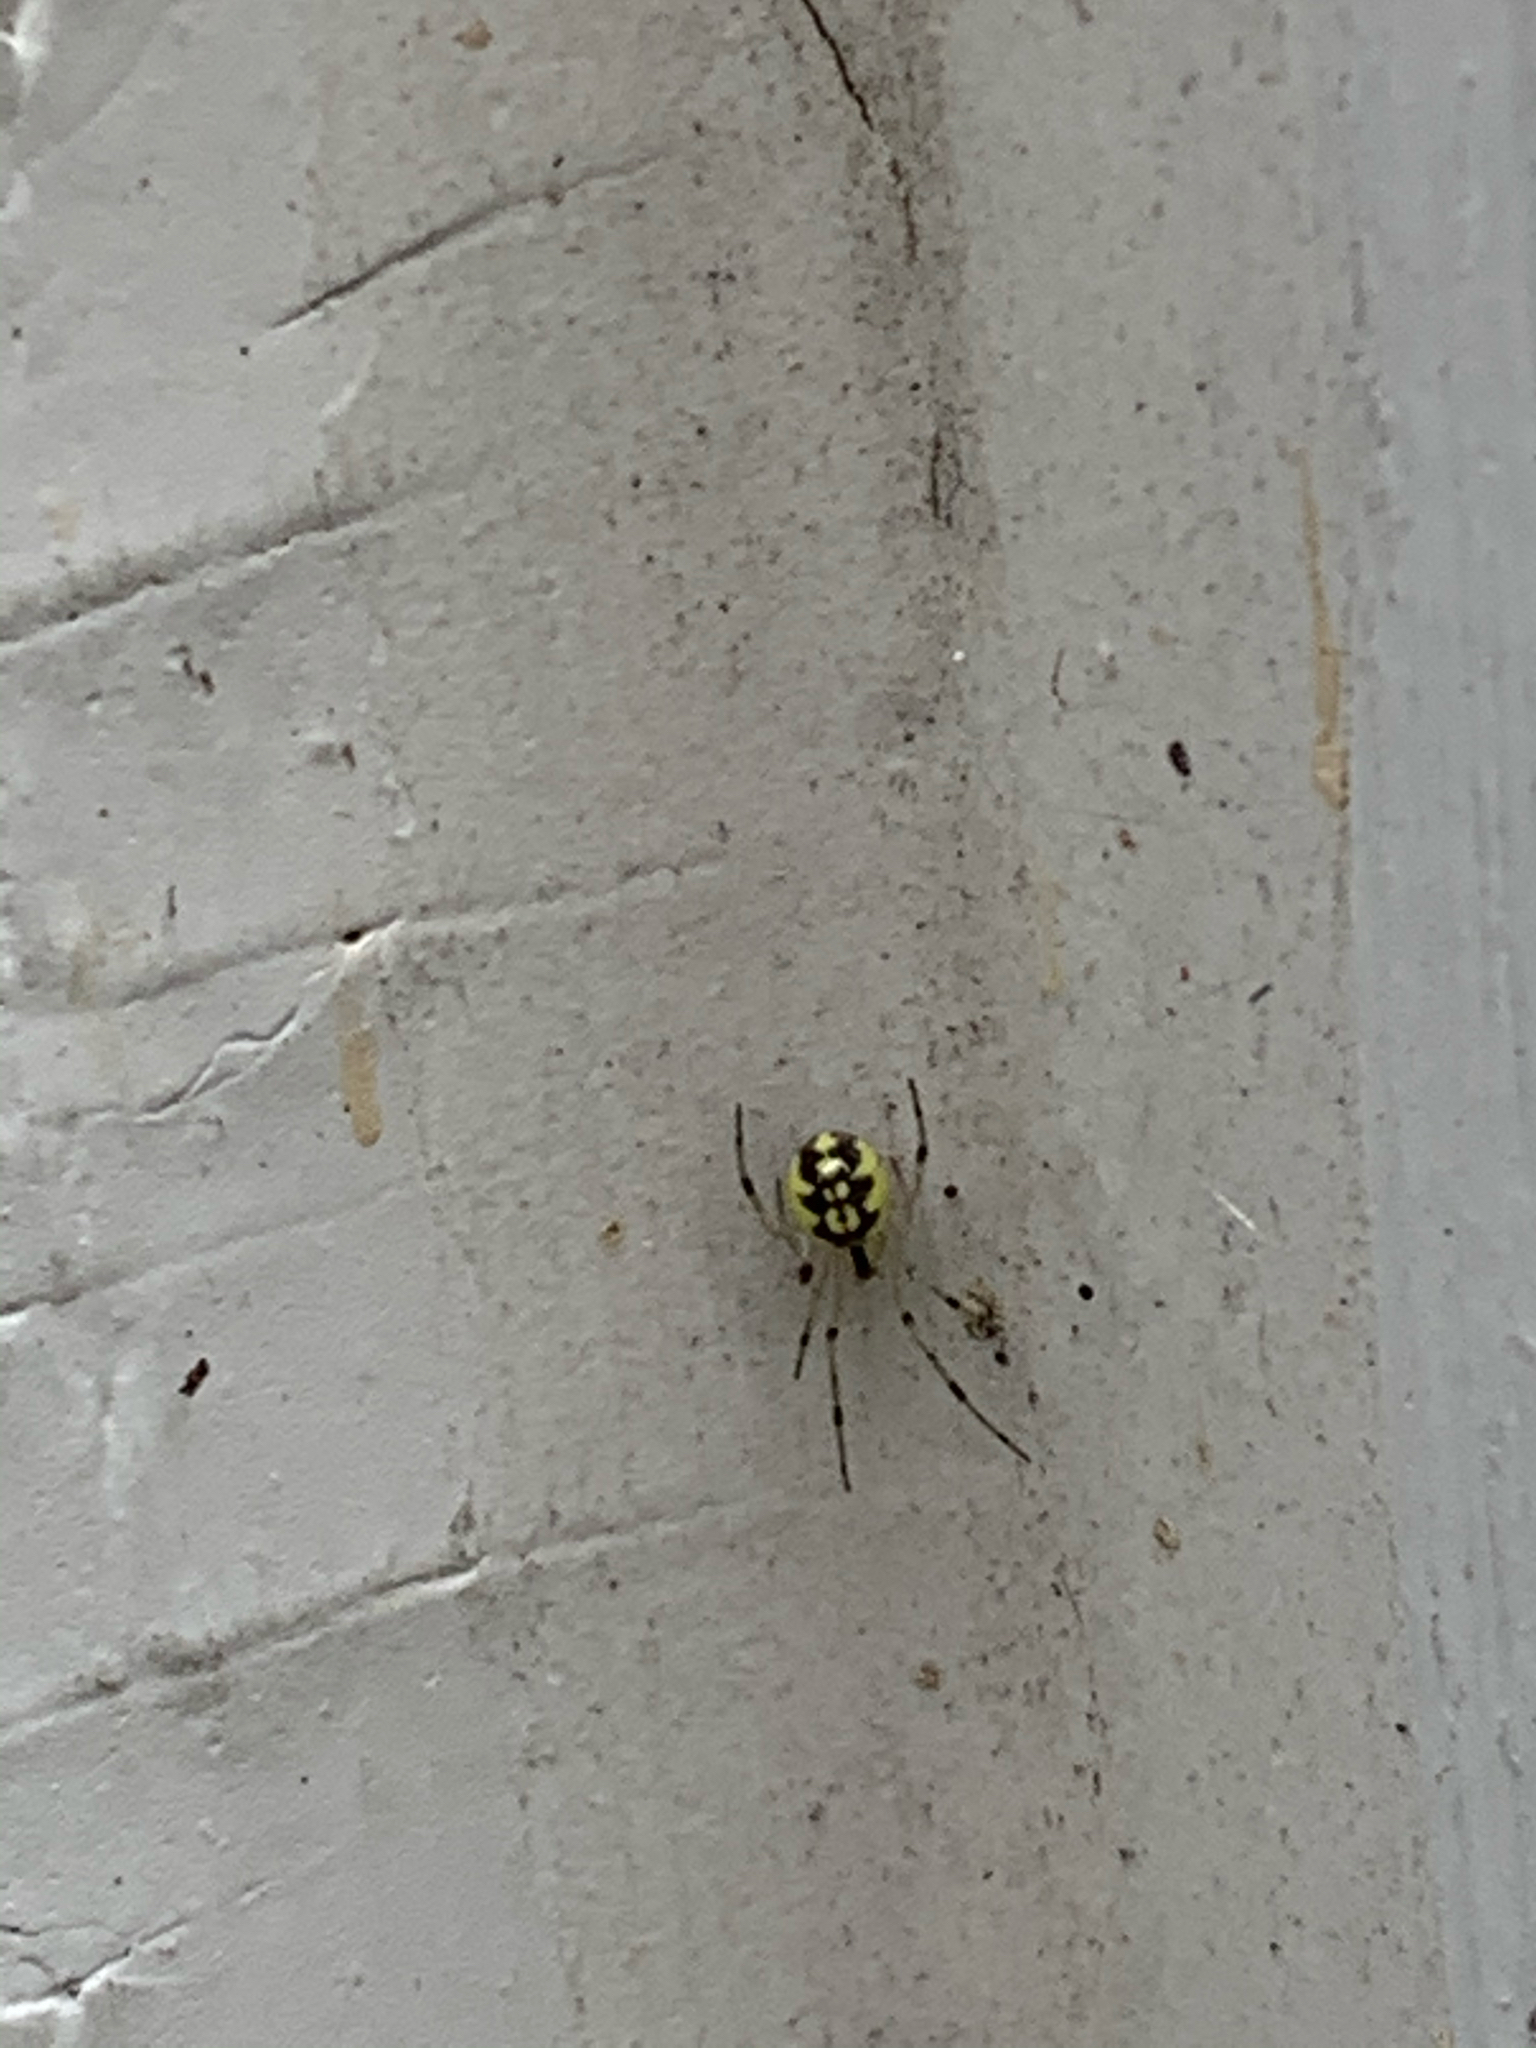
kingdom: Animalia
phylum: Arthropoda
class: Arachnida
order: Araneae
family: Theridiidae
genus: Phylloneta
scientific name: Phylloneta pictipes
